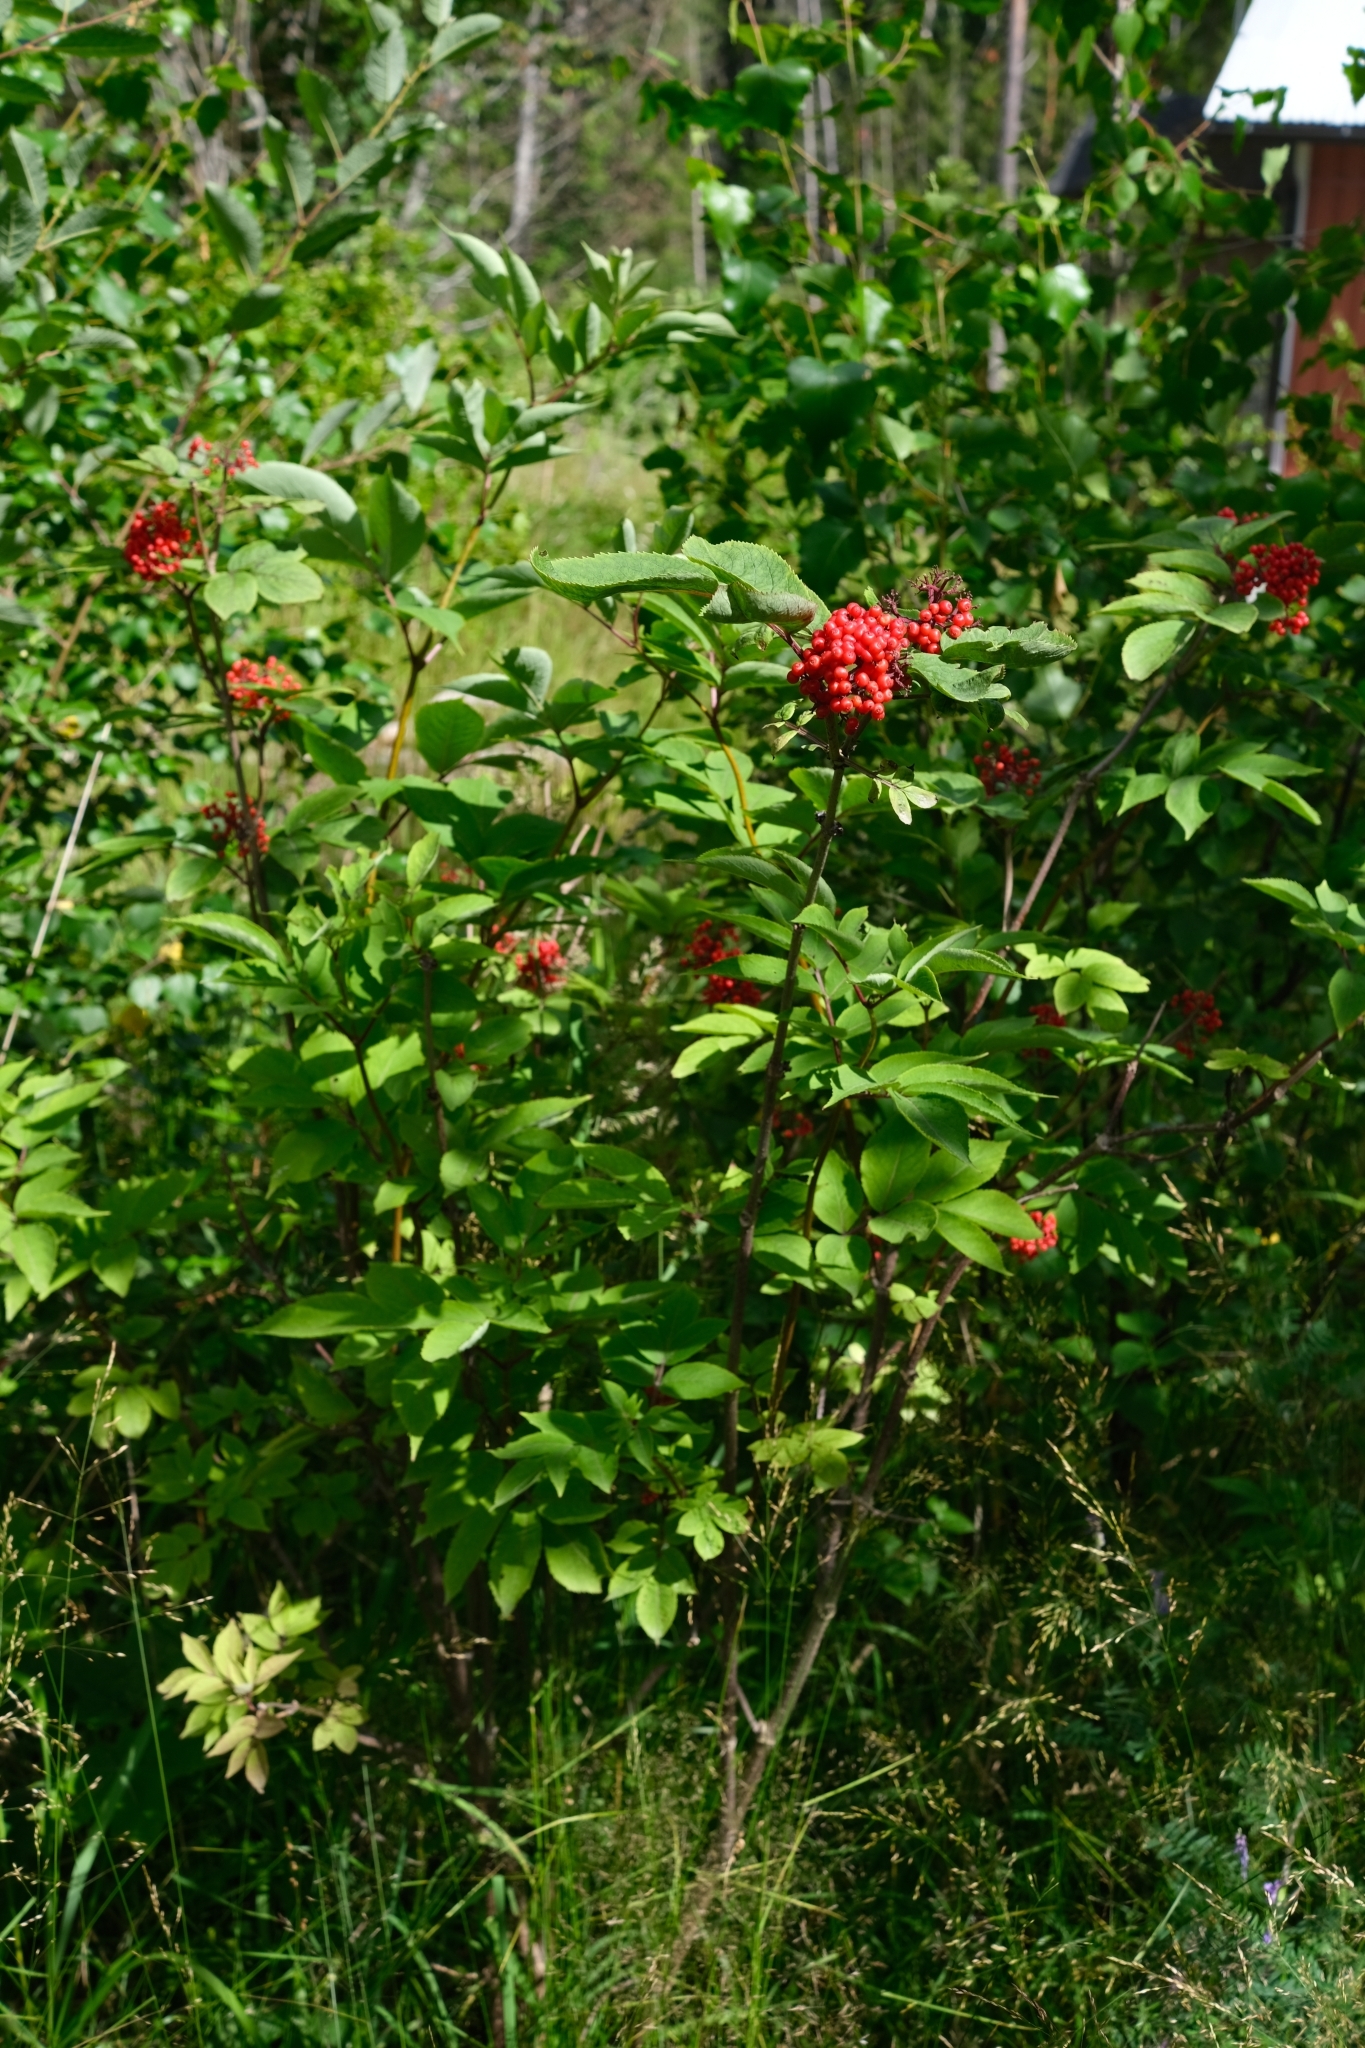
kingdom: Plantae
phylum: Tracheophyta
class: Magnoliopsida
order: Dipsacales
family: Viburnaceae
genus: Sambucus
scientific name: Sambucus racemosa
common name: Red-berried elder
